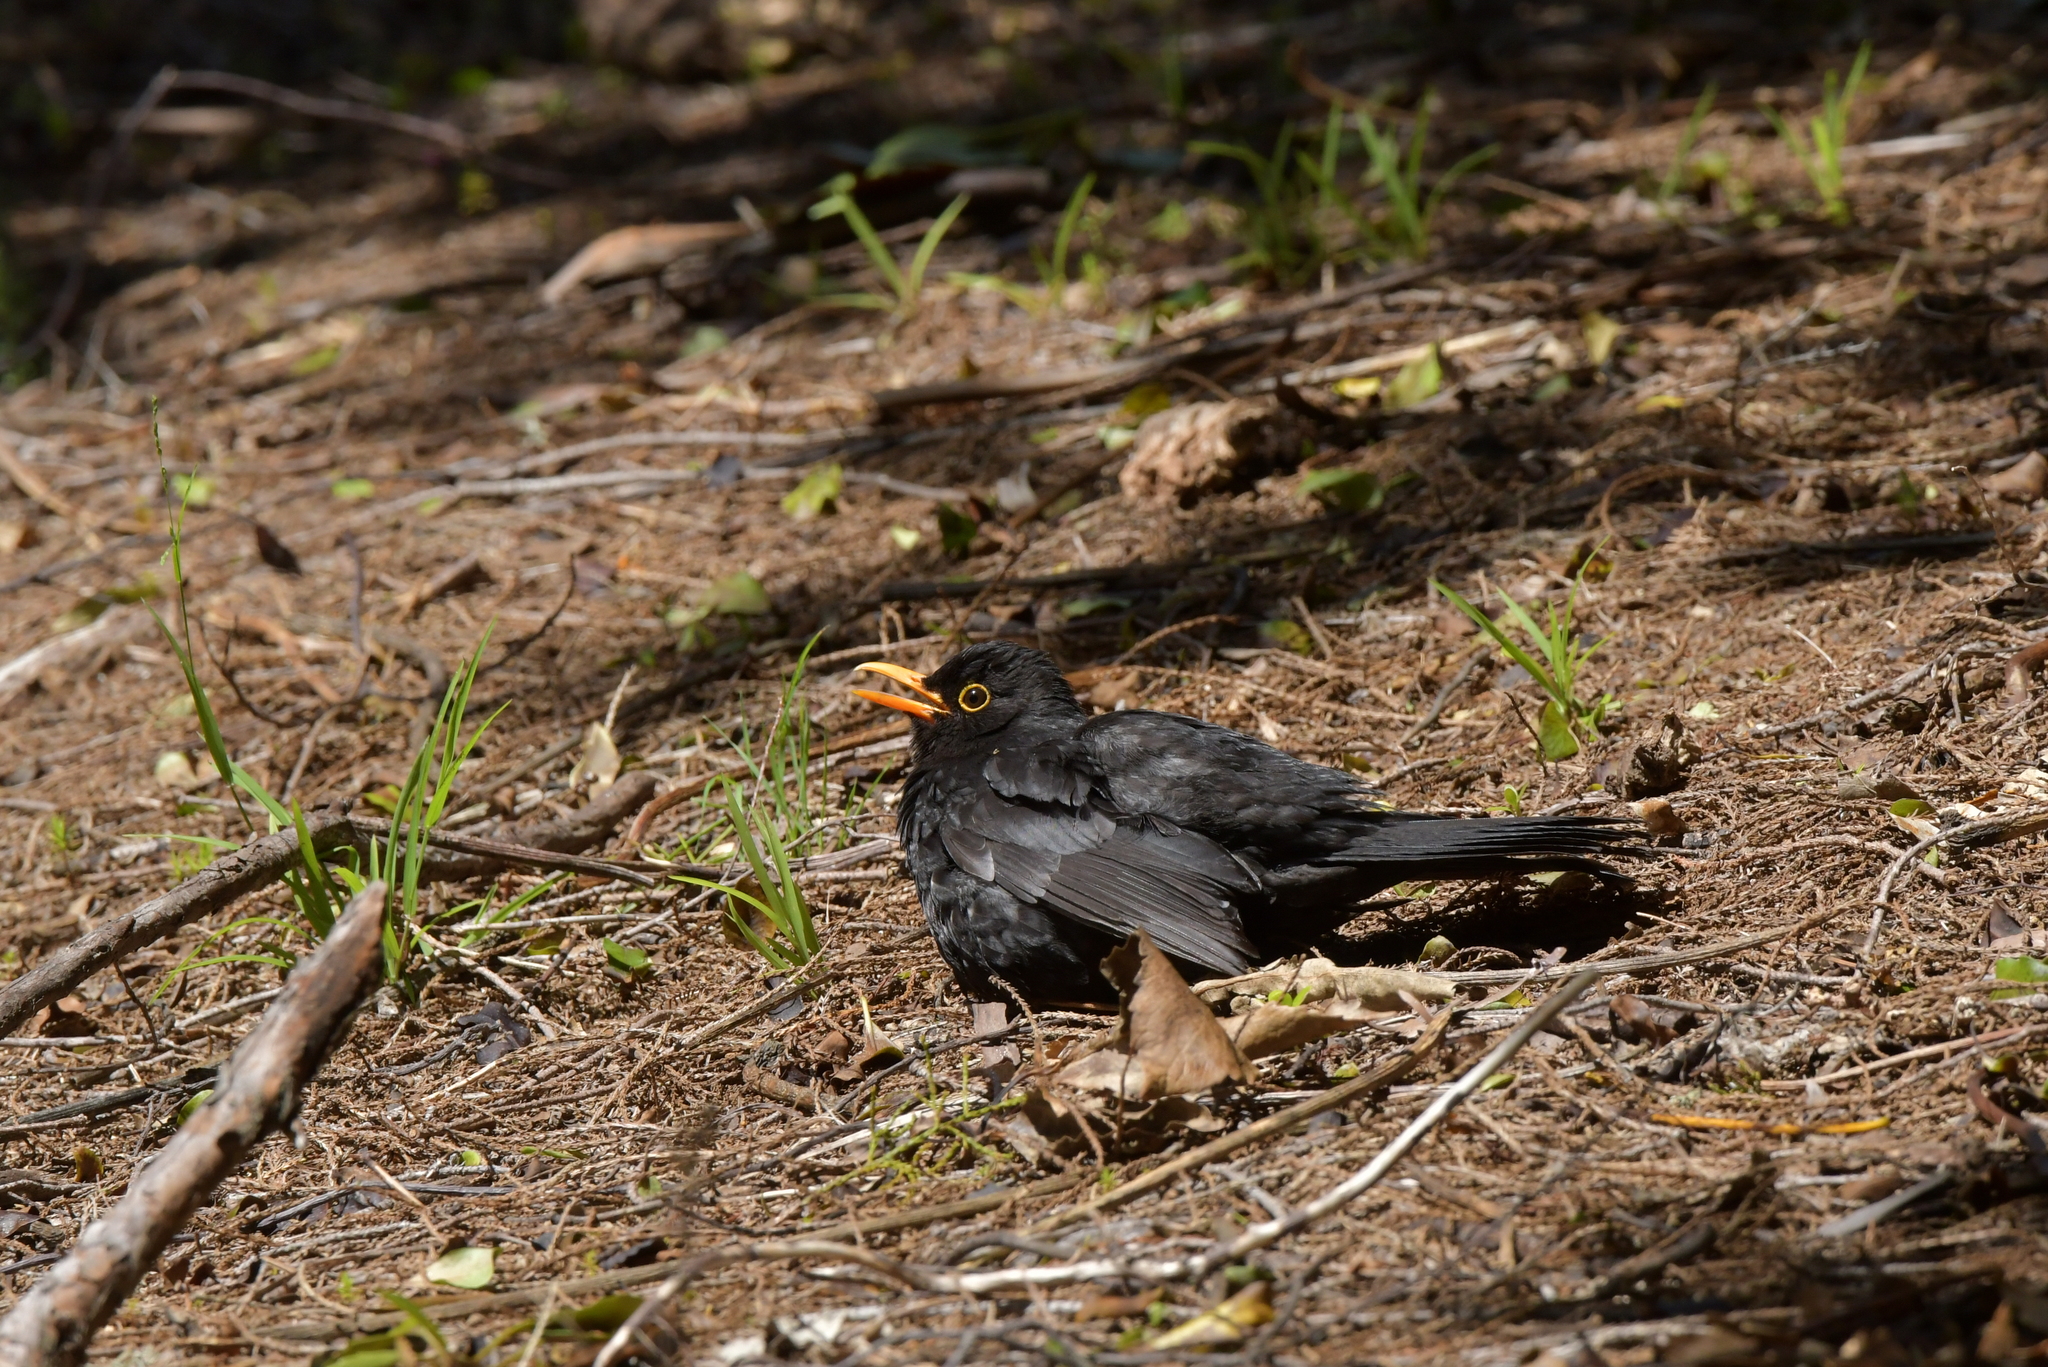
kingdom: Animalia
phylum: Chordata
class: Aves
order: Passeriformes
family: Turdidae
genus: Turdus
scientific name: Turdus merula
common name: Common blackbird
